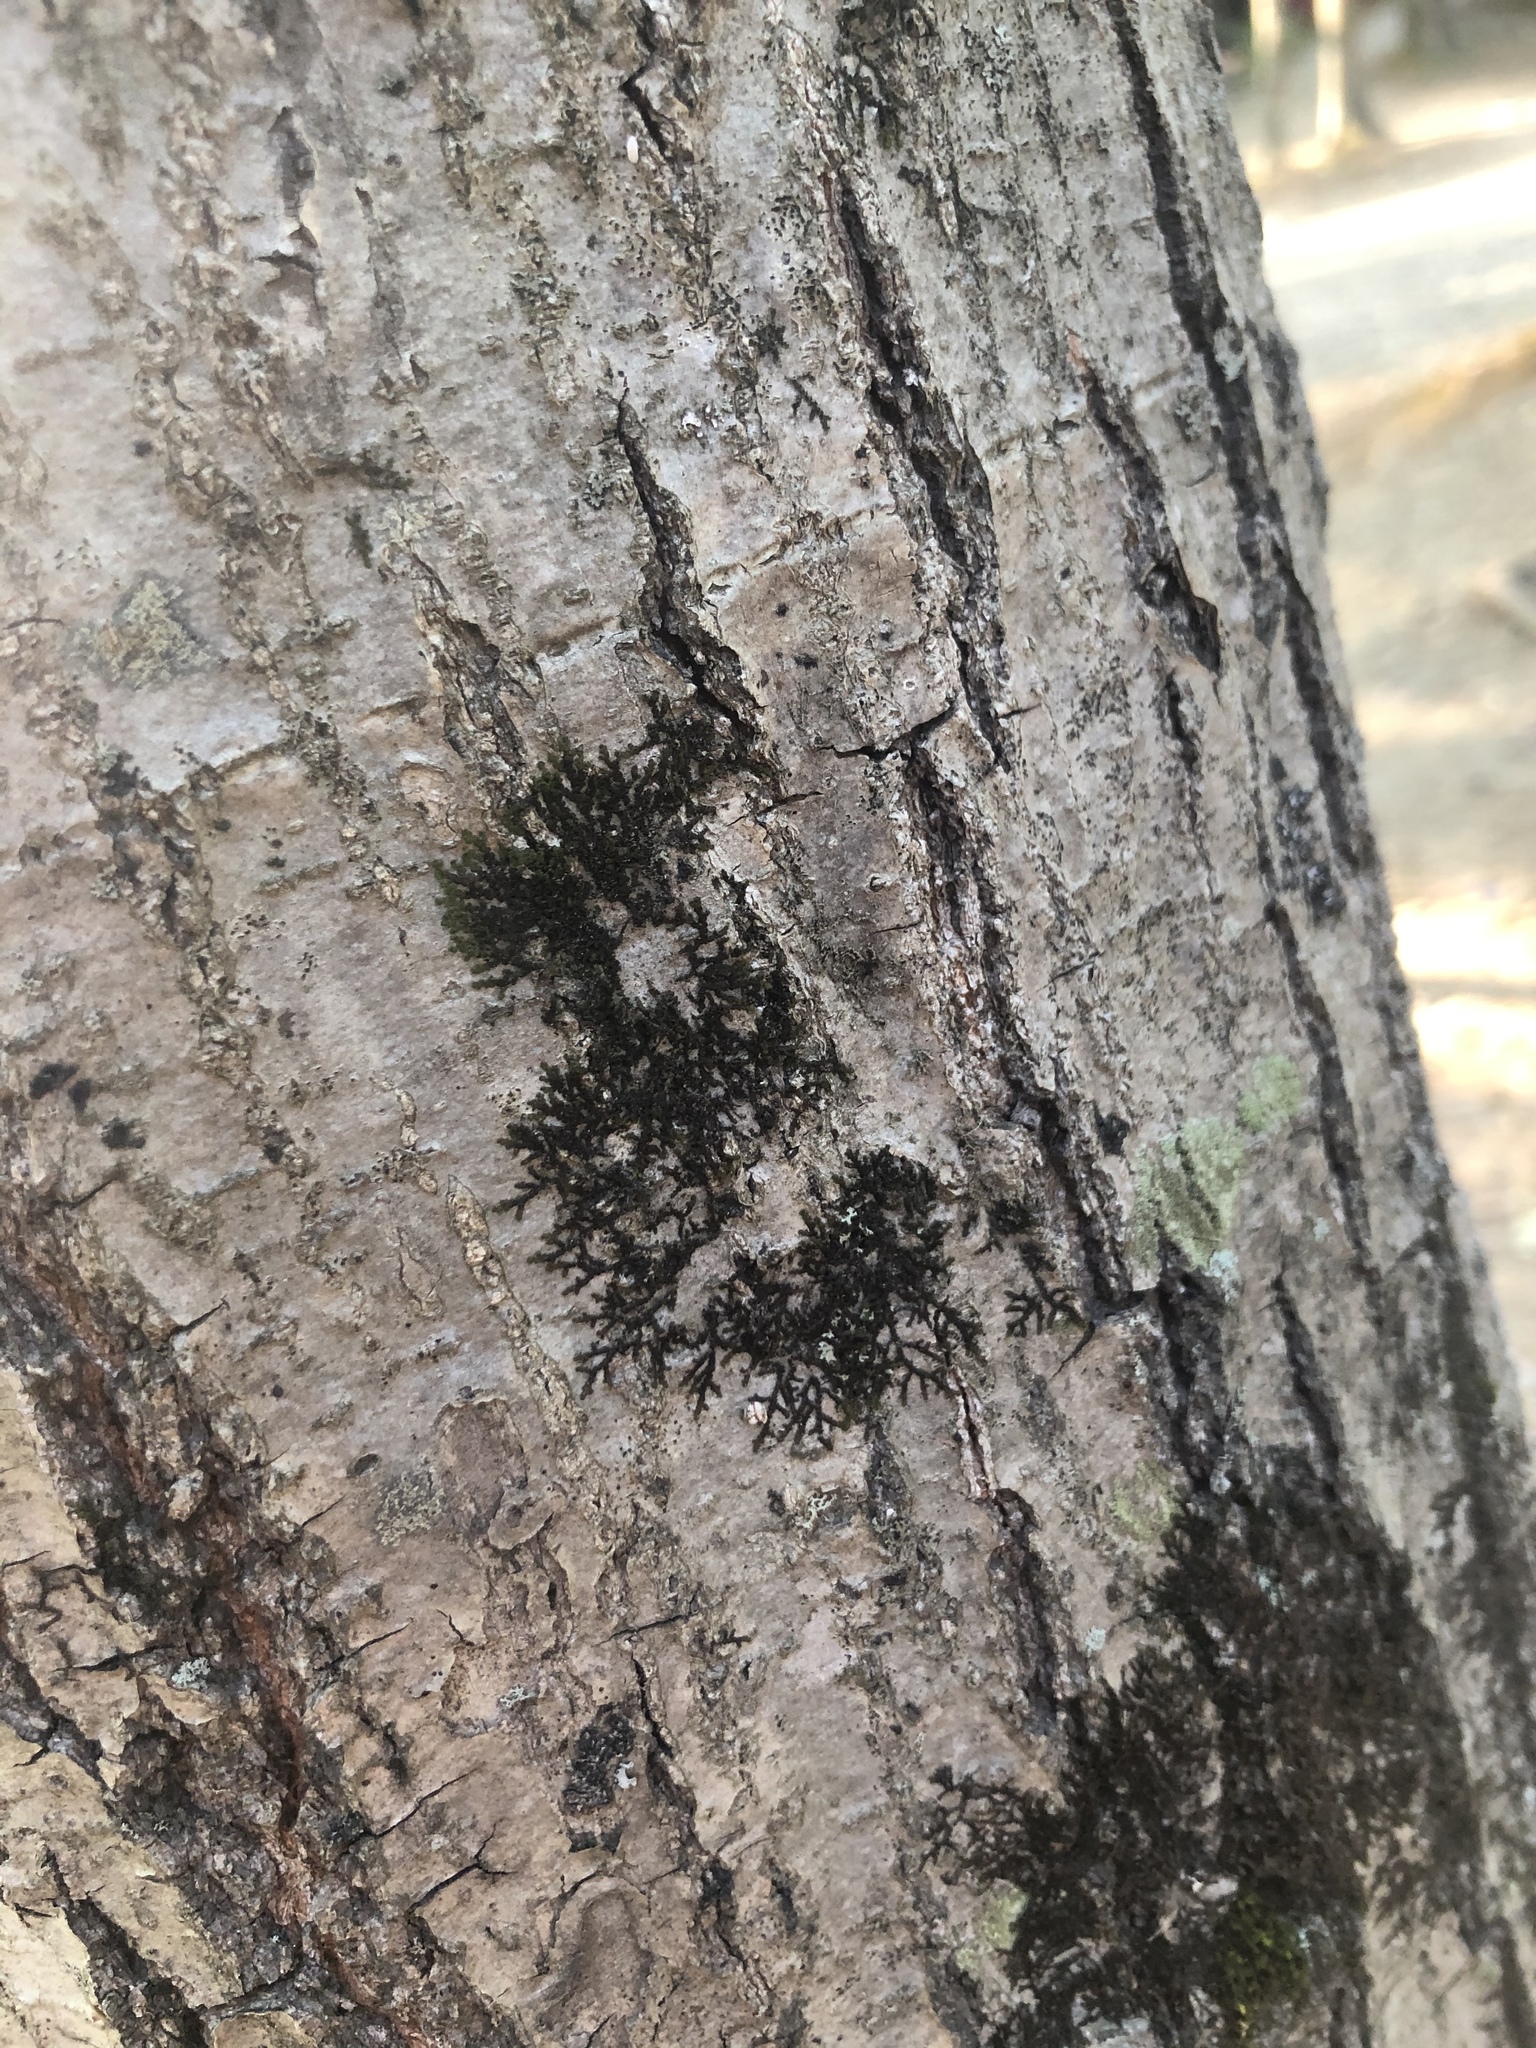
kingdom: Plantae
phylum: Marchantiophyta
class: Jungermanniopsida
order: Porellales
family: Frullaniaceae
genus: Frullania
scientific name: Frullania eboracensis
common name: New york scalewort
